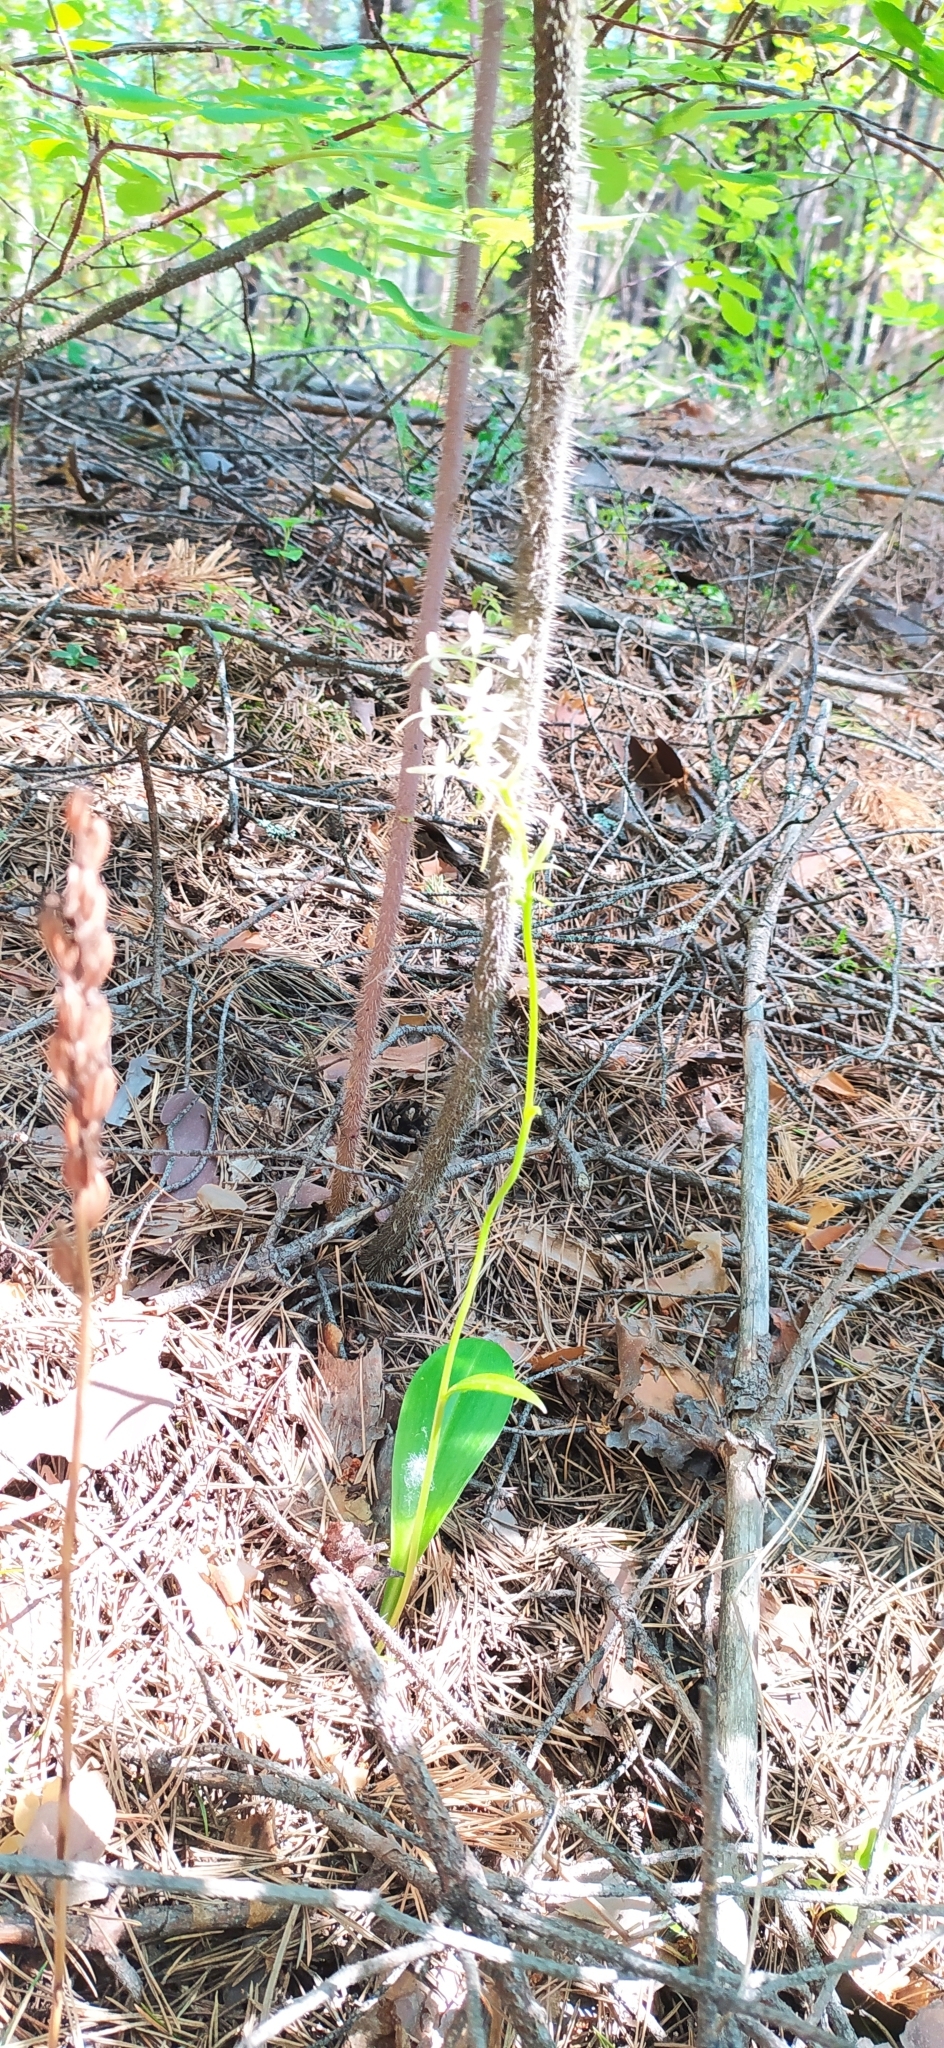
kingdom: Plantae
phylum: Tracheophyta
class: Liliopsida
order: Asparagales
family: Orchidaceae
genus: Platanthera
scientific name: Platanthera bifolia
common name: Lesser butterfly-orchid
